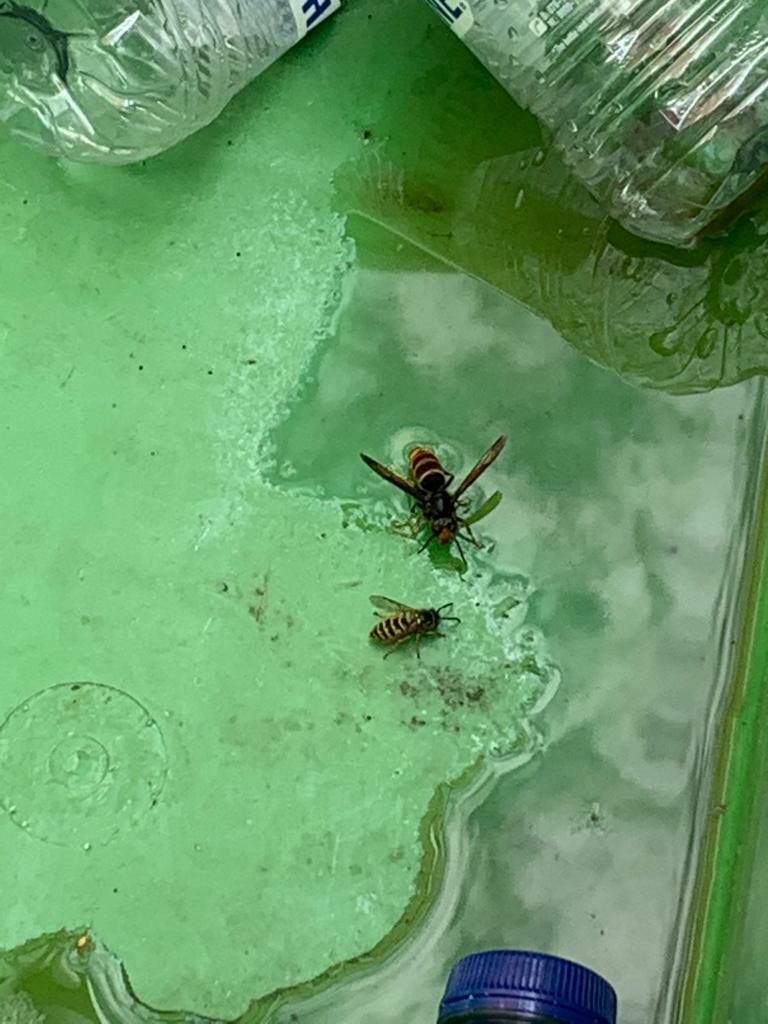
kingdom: Animalia
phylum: Arthropoda
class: Insecta
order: Hymenoptera
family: Vespidae
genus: Vespa
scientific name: Vespa velutina
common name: Asian hornet
